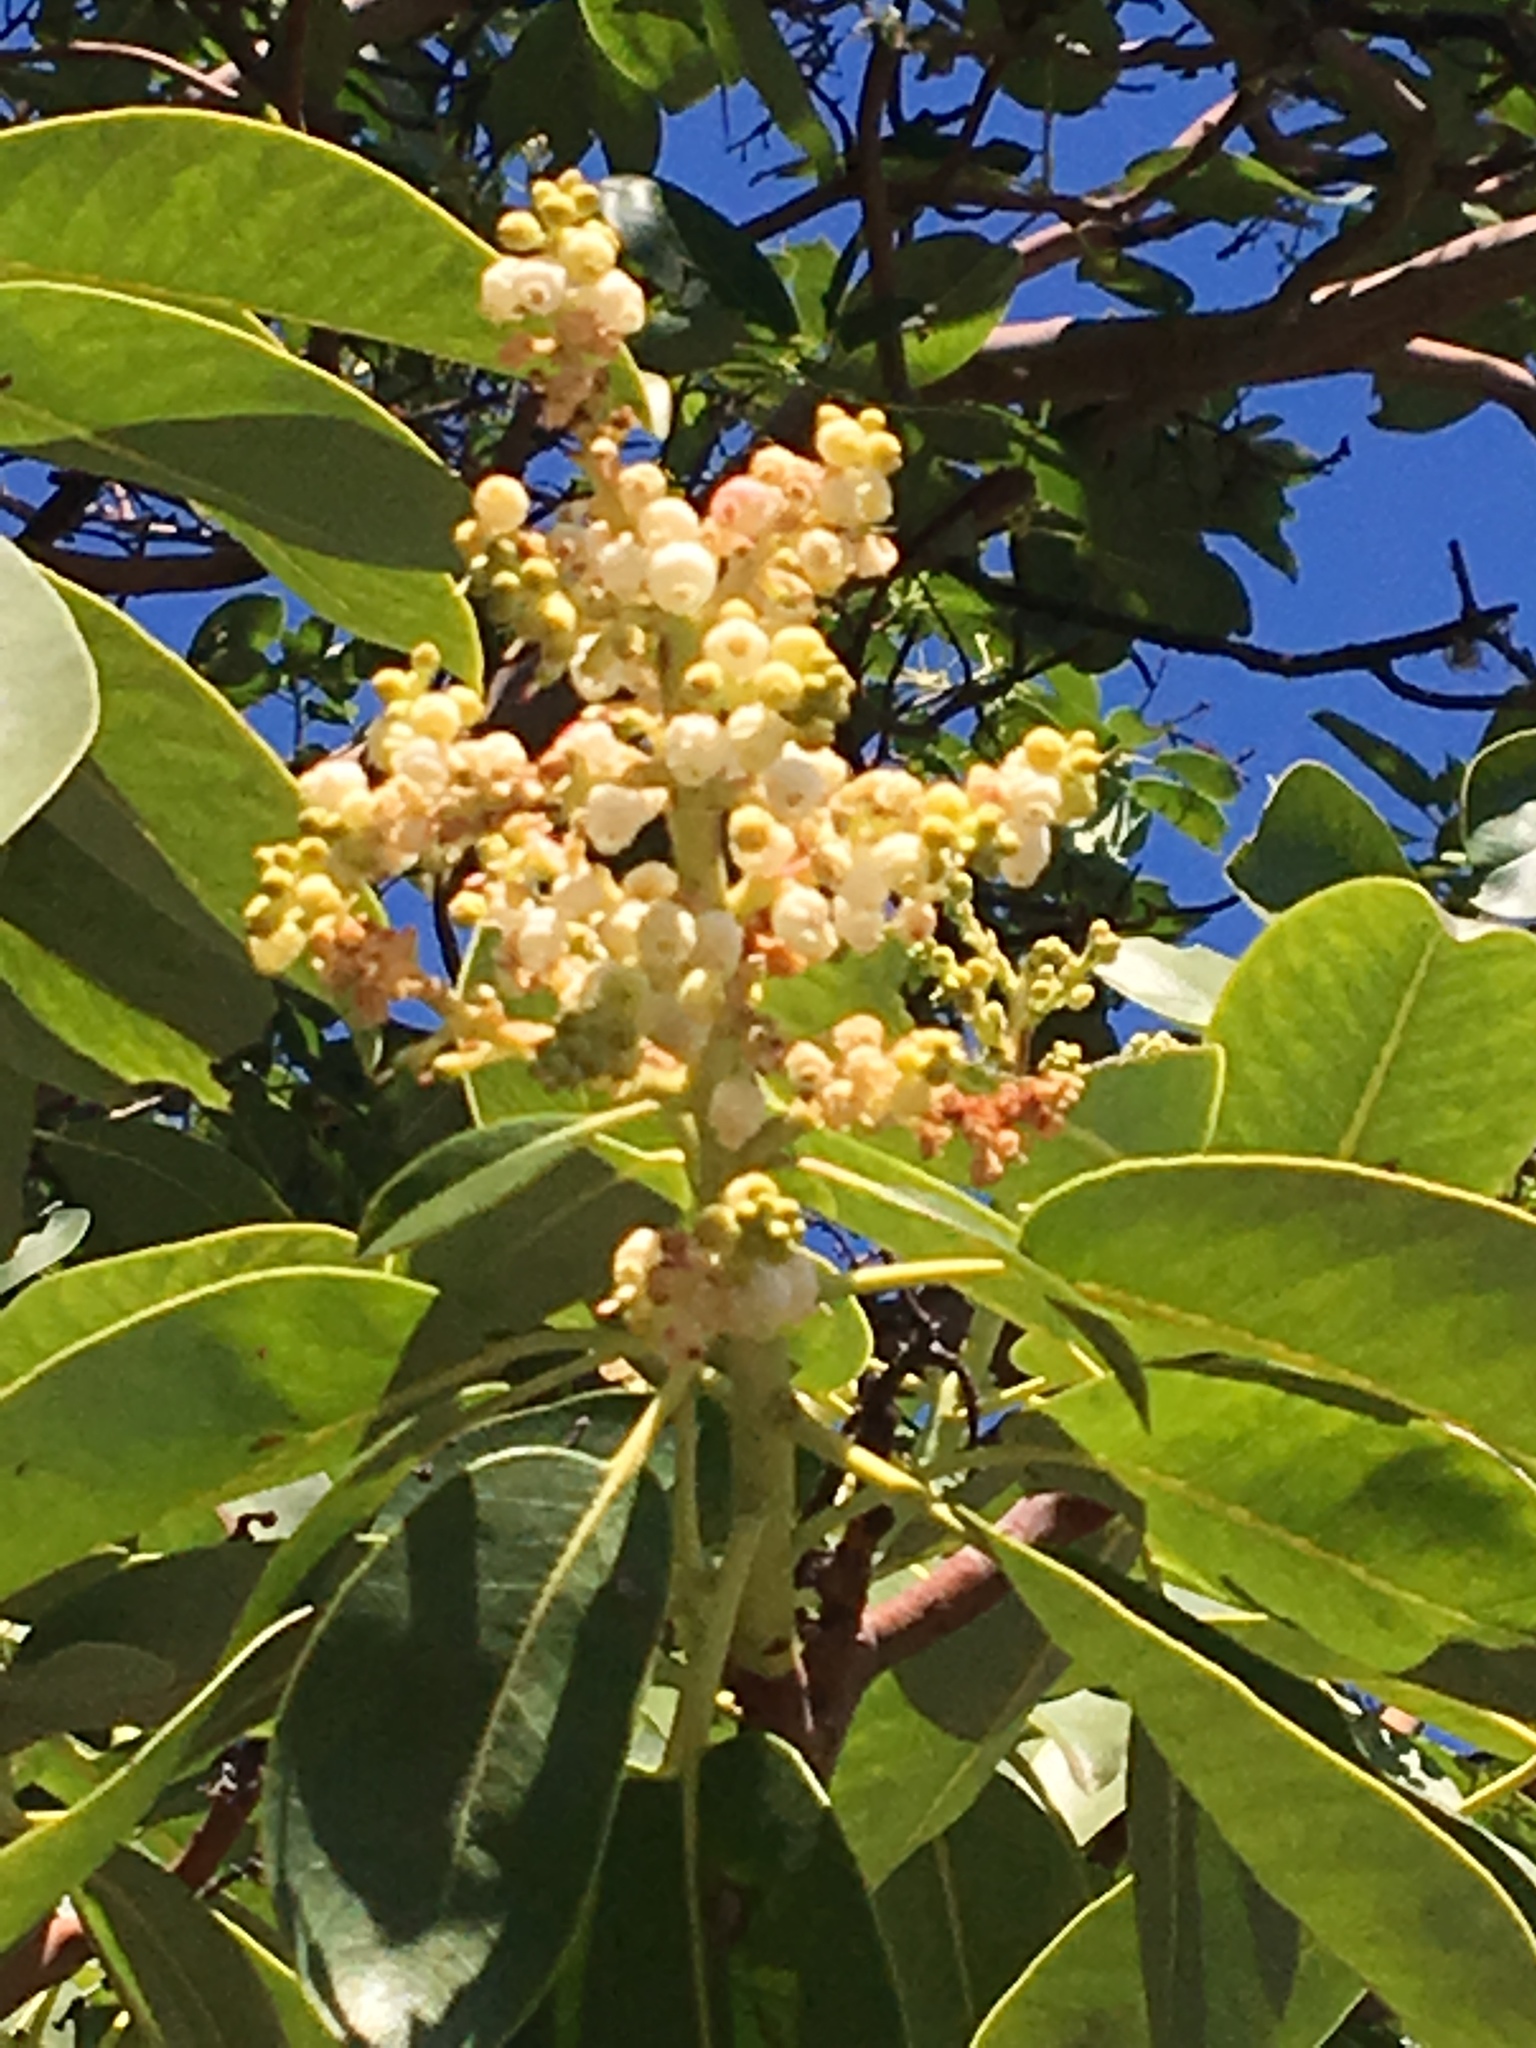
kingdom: Plantae
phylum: Tracheophyta
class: Magnoliopsida
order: Ericales
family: Ericaceae
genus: Arbutus
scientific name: Arbutus menziesii
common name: Pacific madrone
